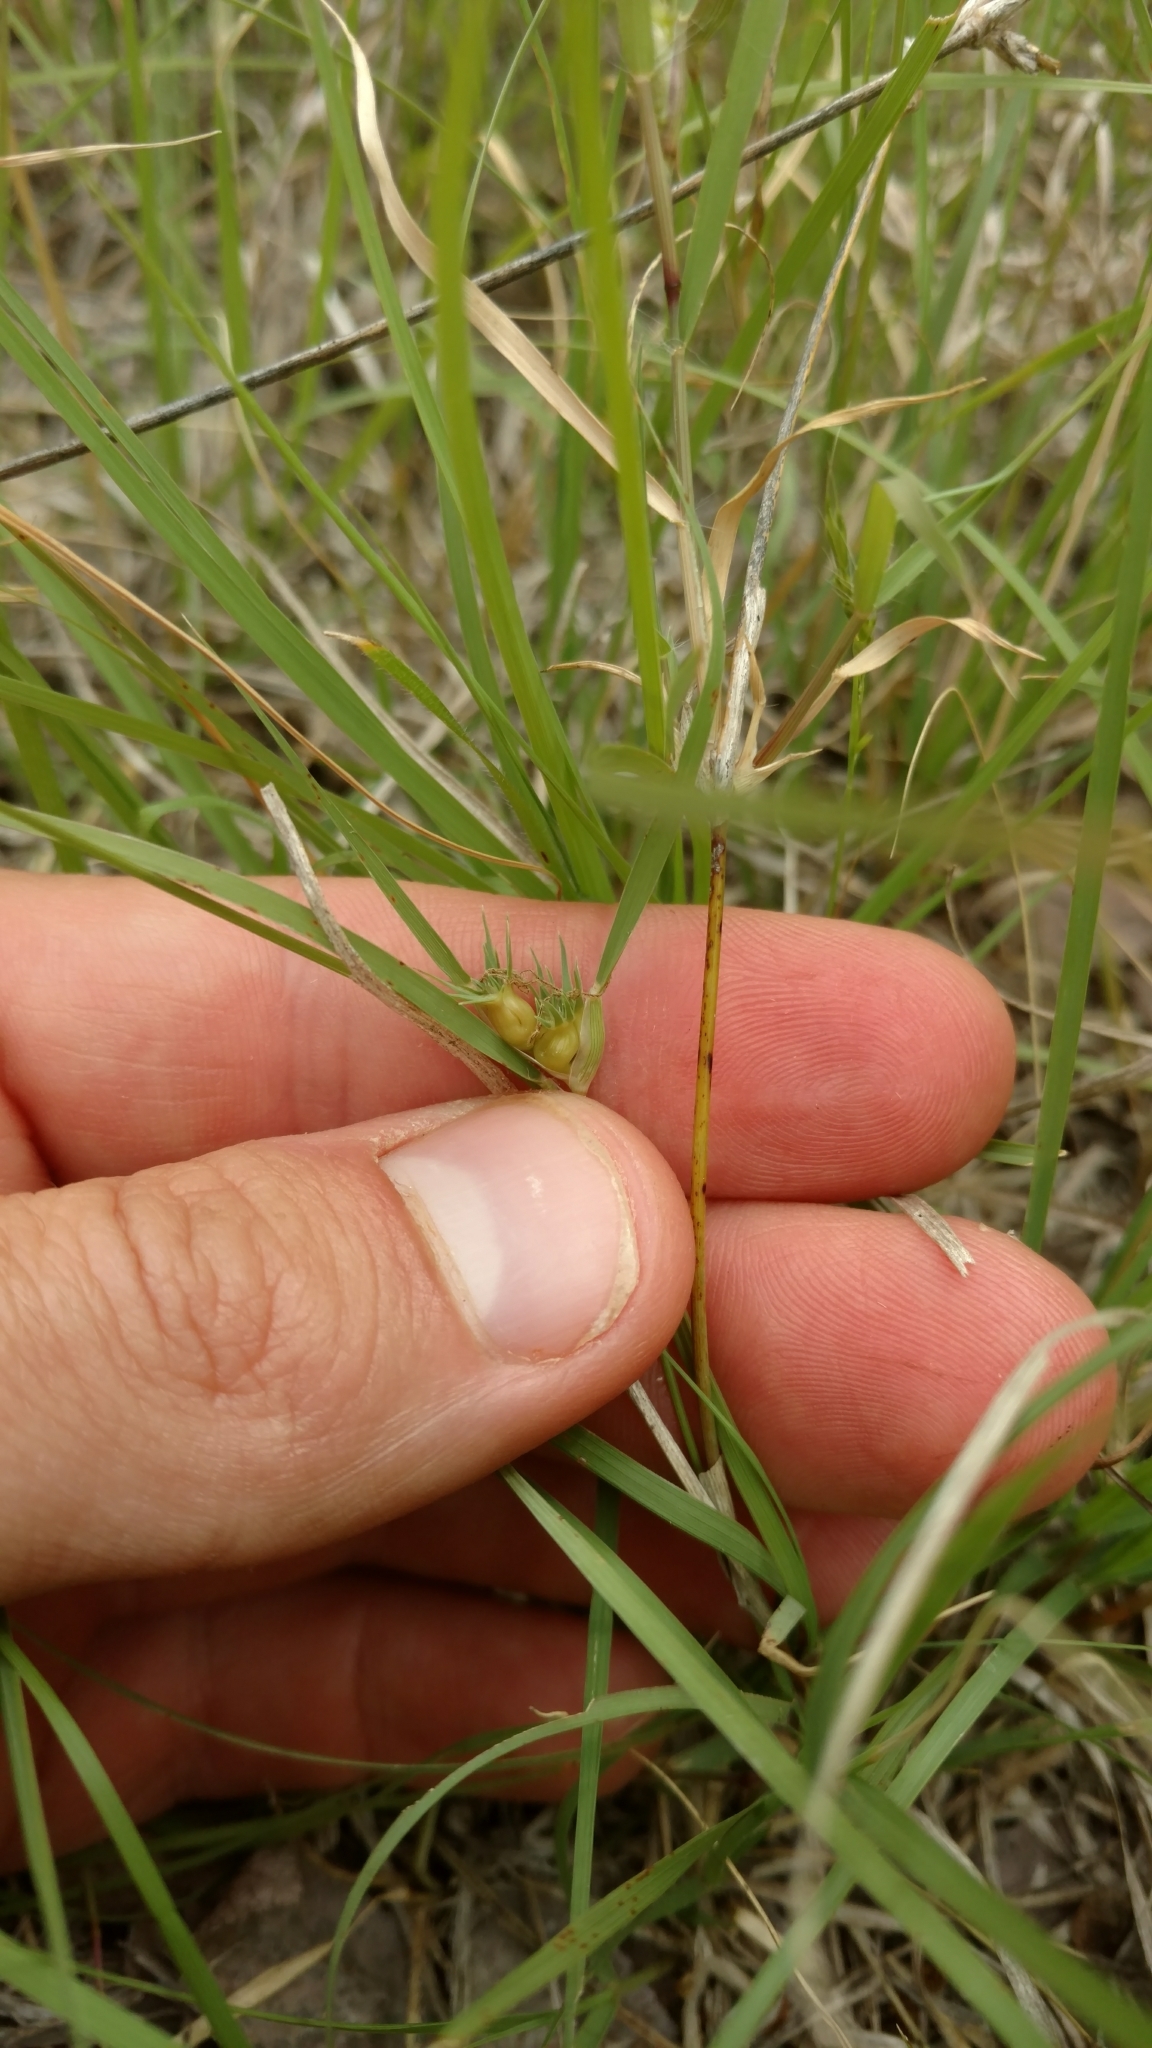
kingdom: Plantae
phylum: Tracheophyta
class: Liliopsida
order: Poales
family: Poaceae
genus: Bouteloua
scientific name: Bouteloua dactyloides
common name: Buffalo grass
